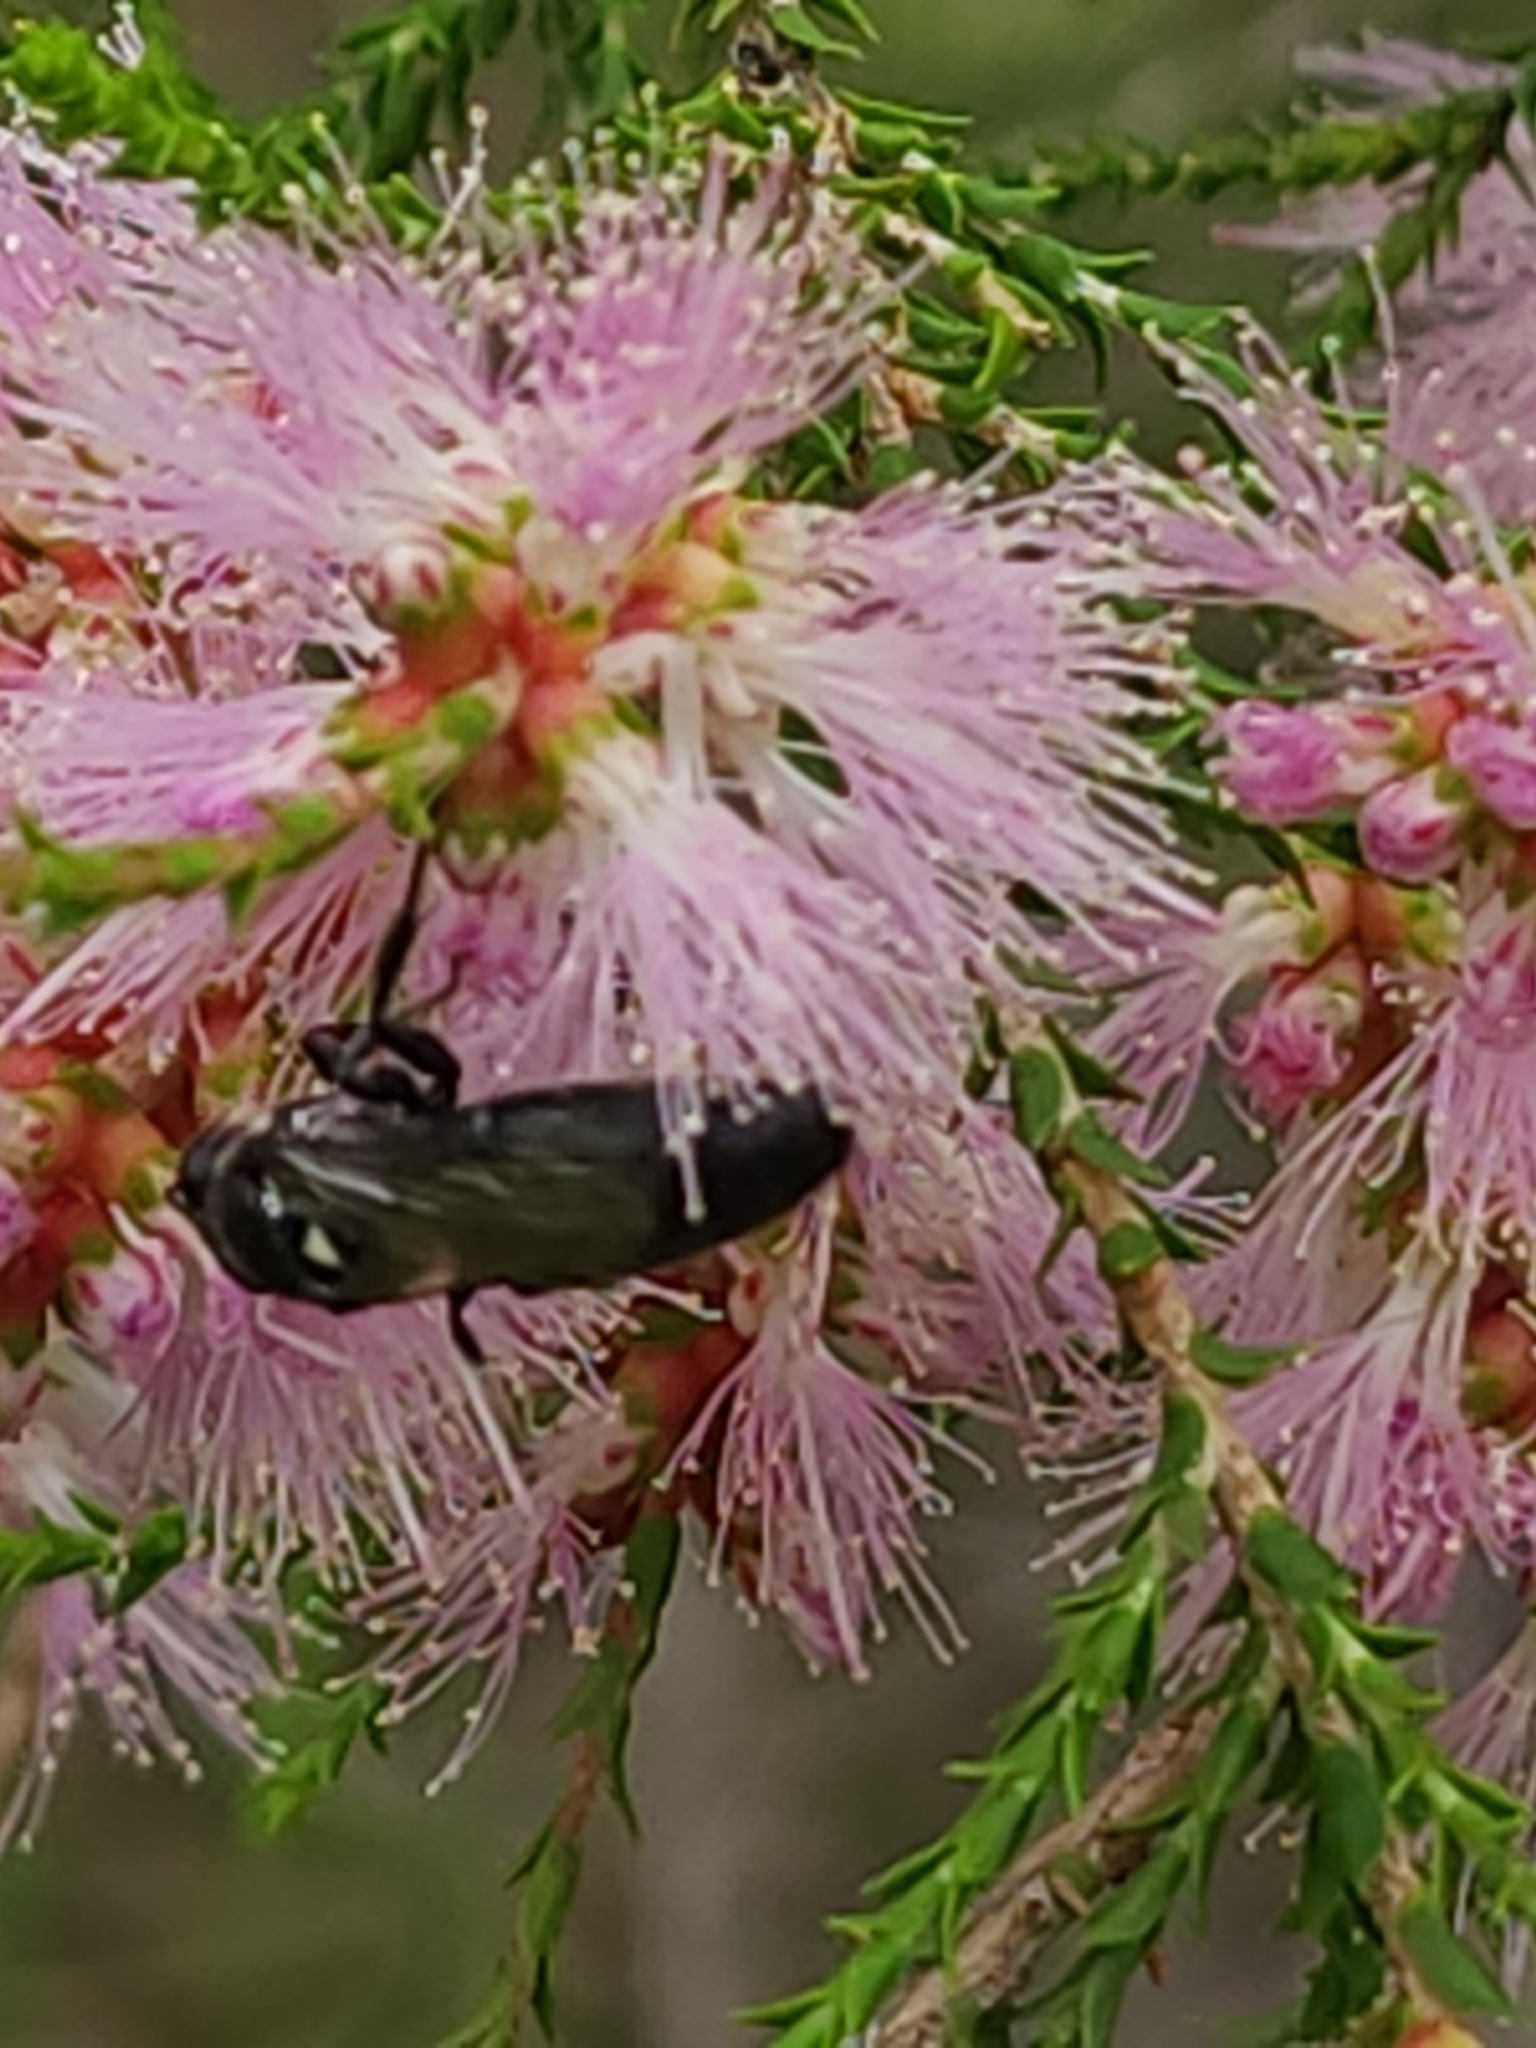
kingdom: Animalia
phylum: Arthropoda
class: Insecta
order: Hymenoptera
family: Colletidae
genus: Meroglossa
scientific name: Meroglossa impressifrons
